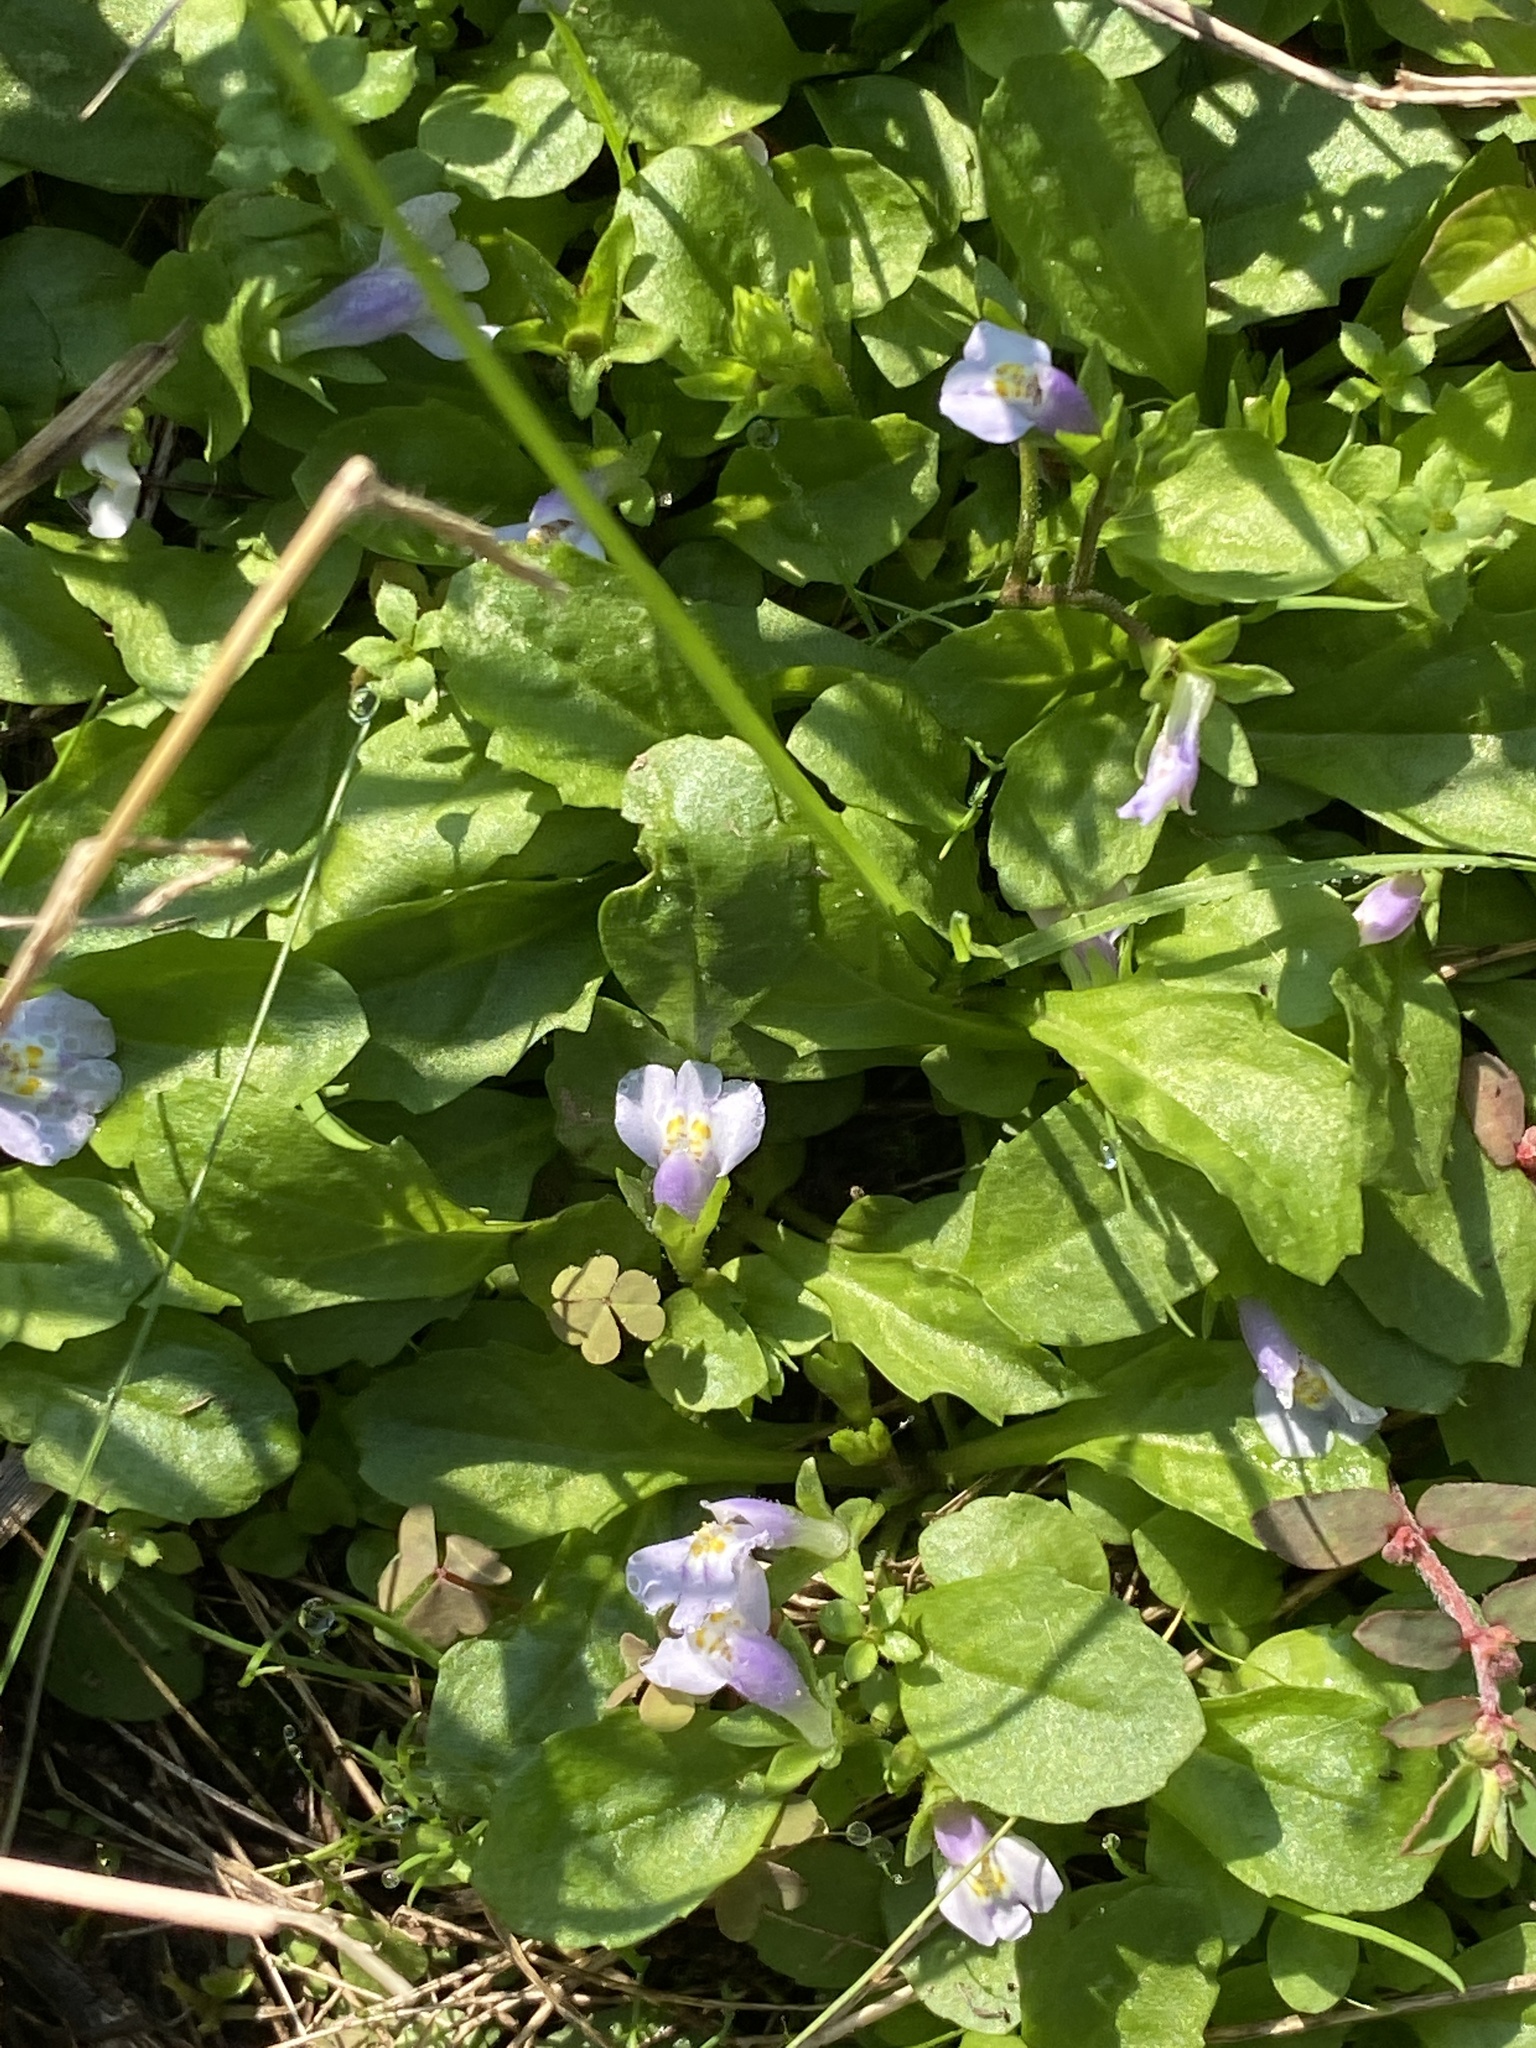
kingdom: Plantae
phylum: Tracheophyta
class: Magnoliopsida
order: Lamiales
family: Mazaceae
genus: Mazus
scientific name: Mazus pumilus
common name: Japanese mazus
